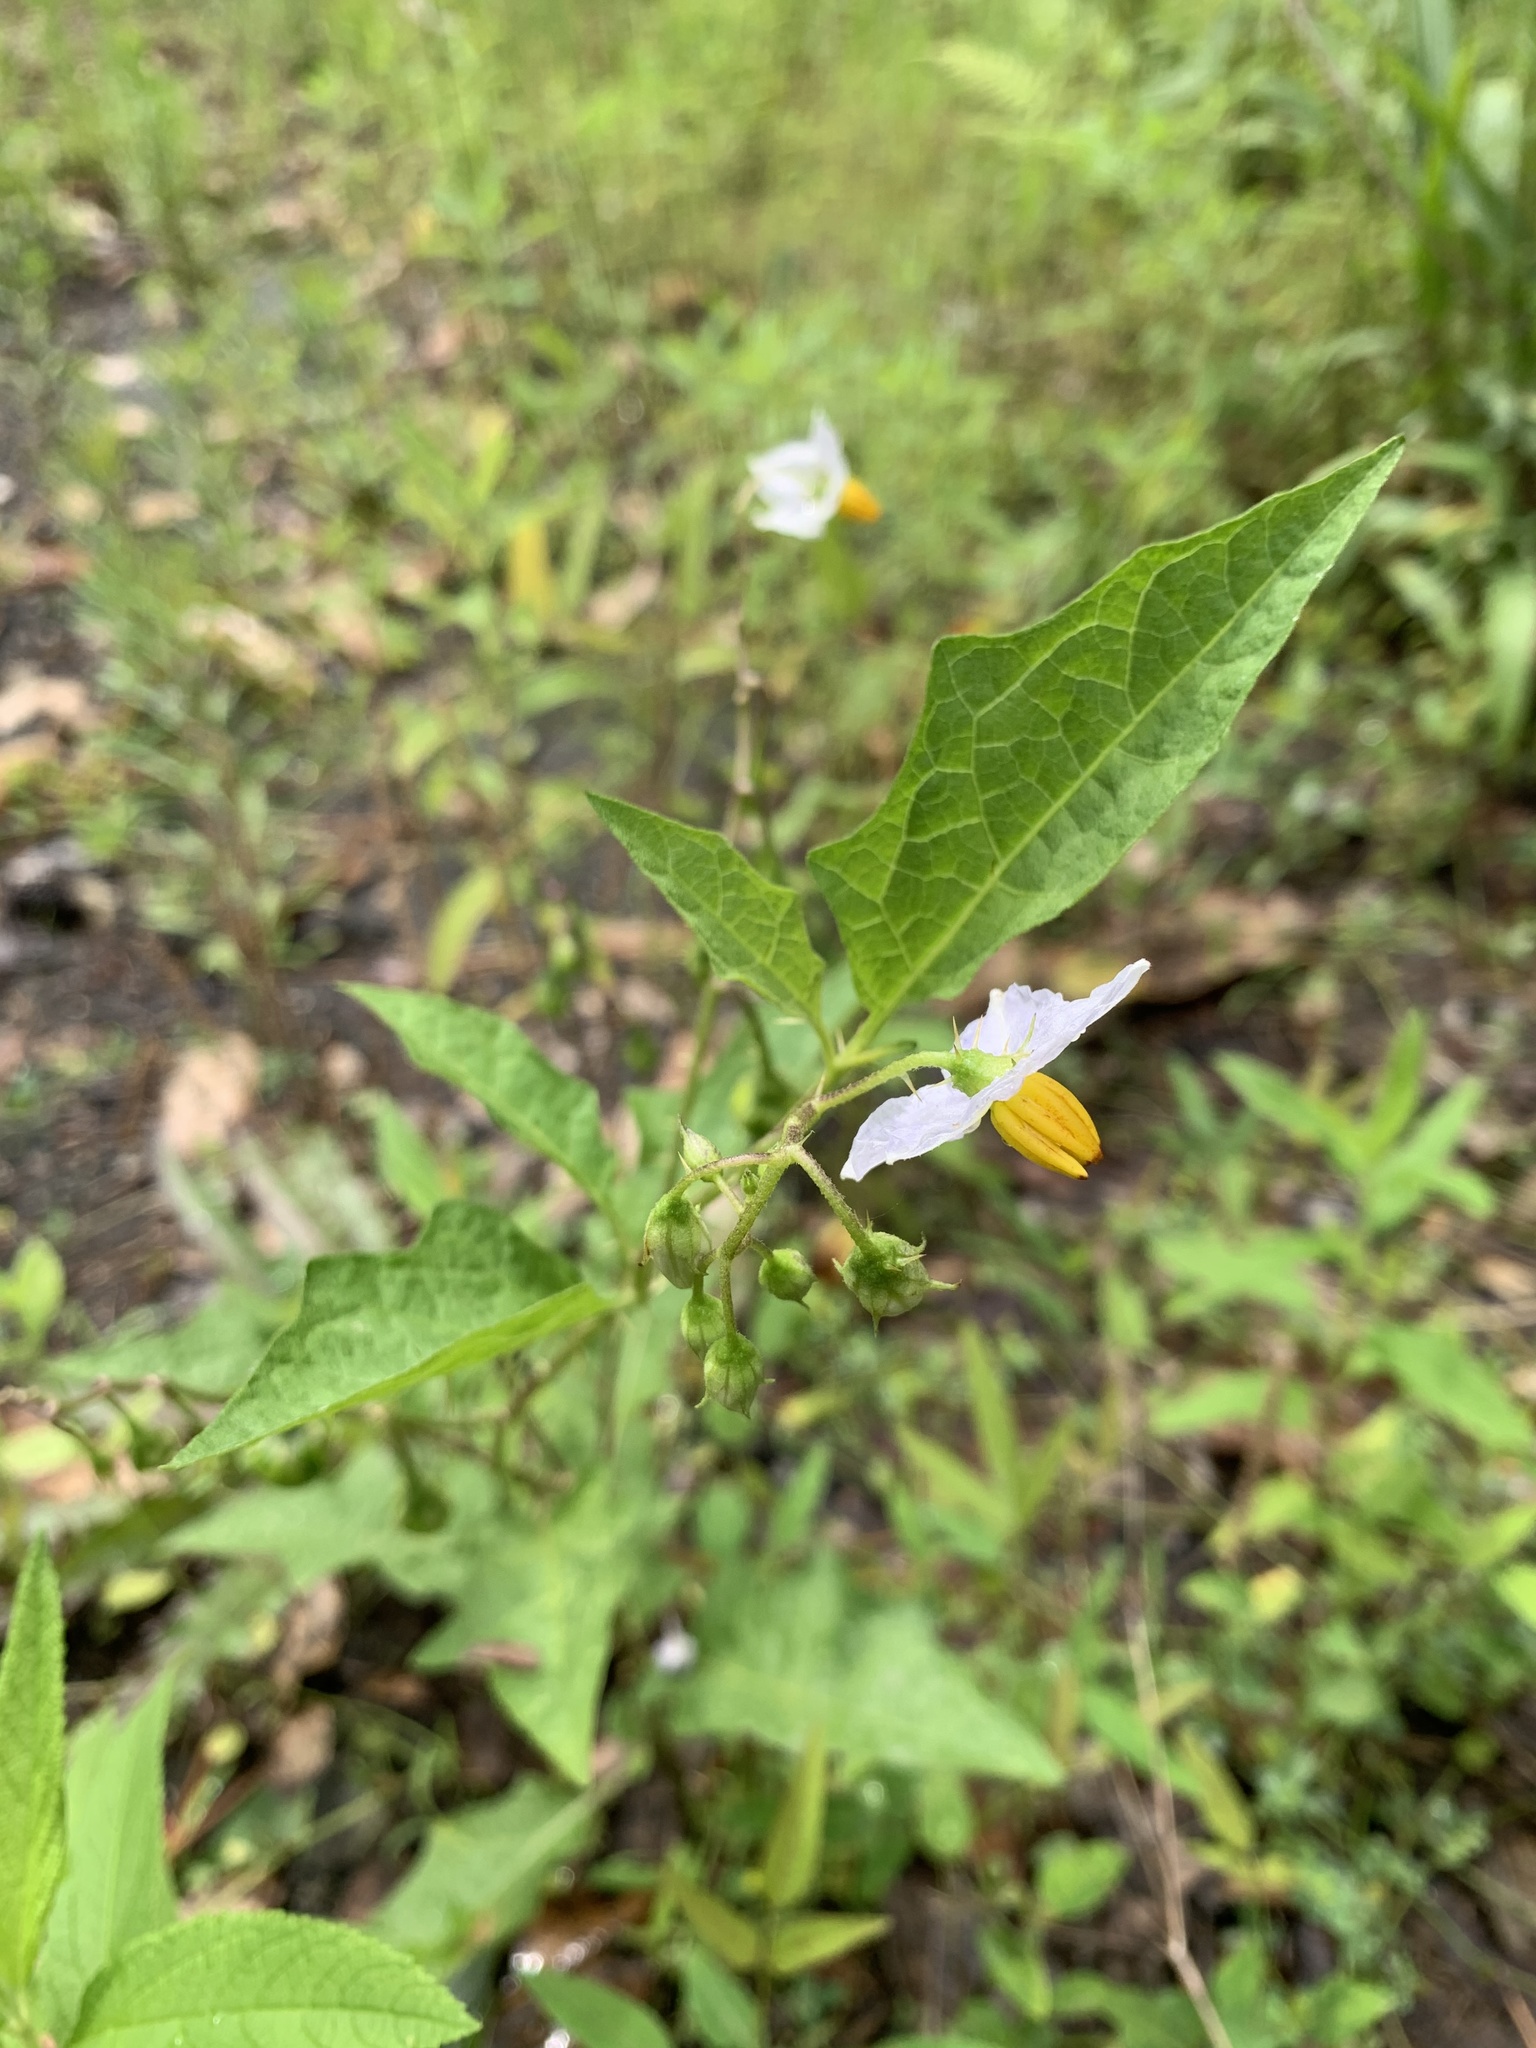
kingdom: Plantae
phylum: Tracheophyta
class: Magnoliopsida
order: Solanales
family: Solanaceae
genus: Solanum
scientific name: Solanum carolinense
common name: Horse-nettle
